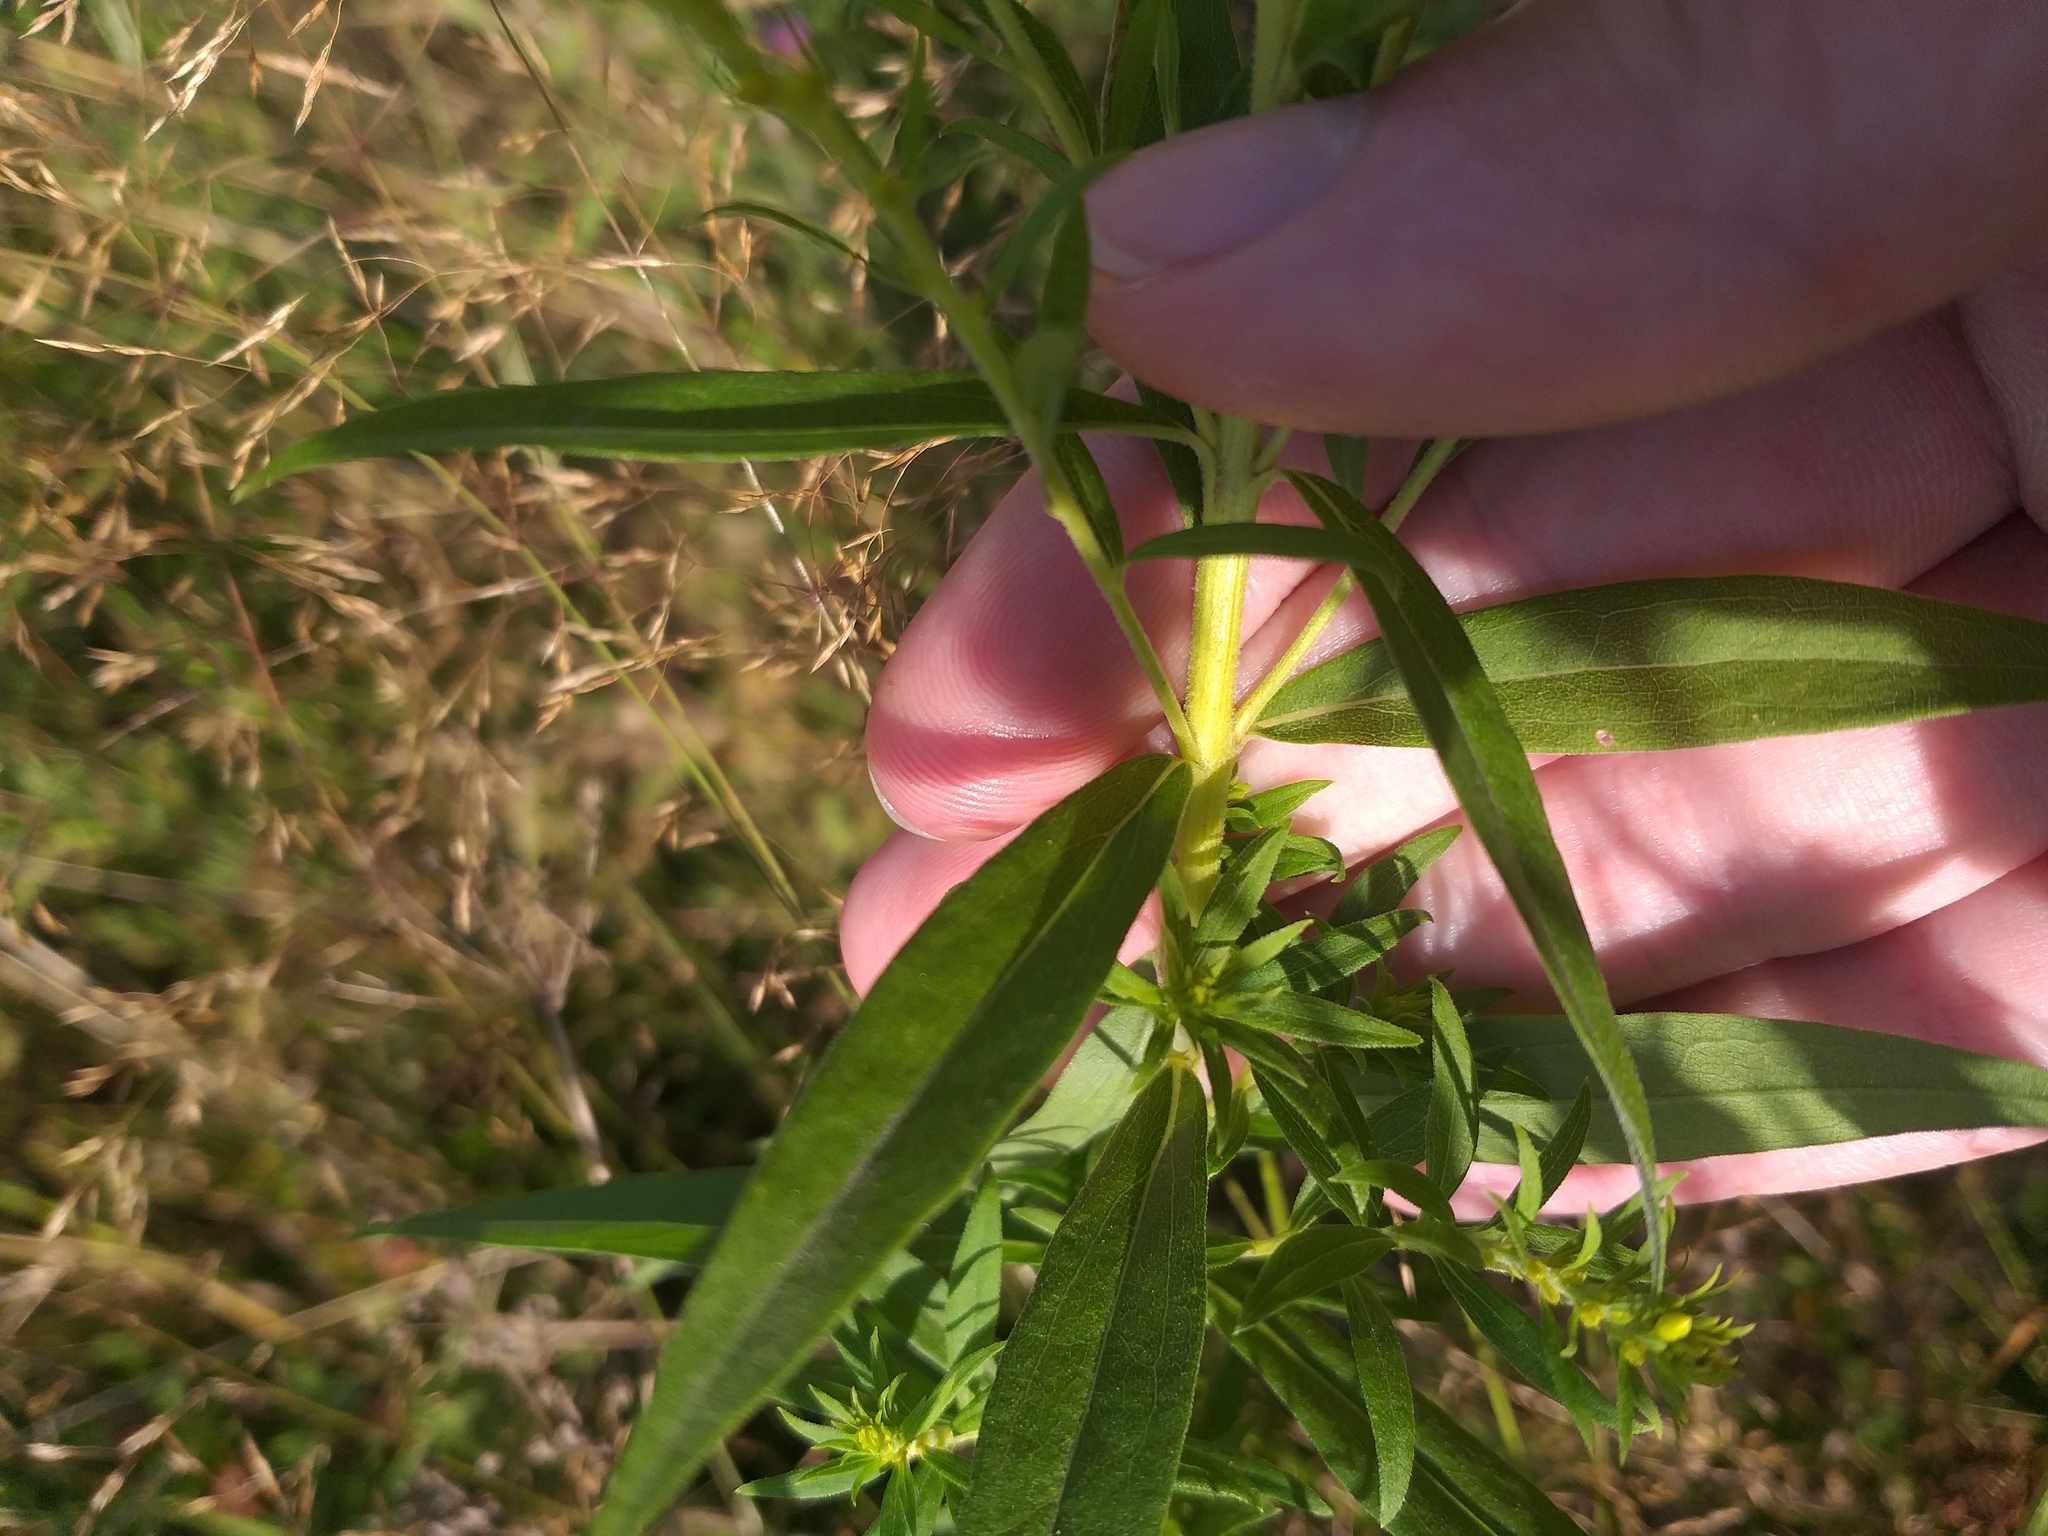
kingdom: Plantae
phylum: Tracheophyta
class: Magnoliopsida
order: Asterales
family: Asteraceae
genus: Solidago
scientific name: Solidago canadensis
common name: Canada goldenrod
